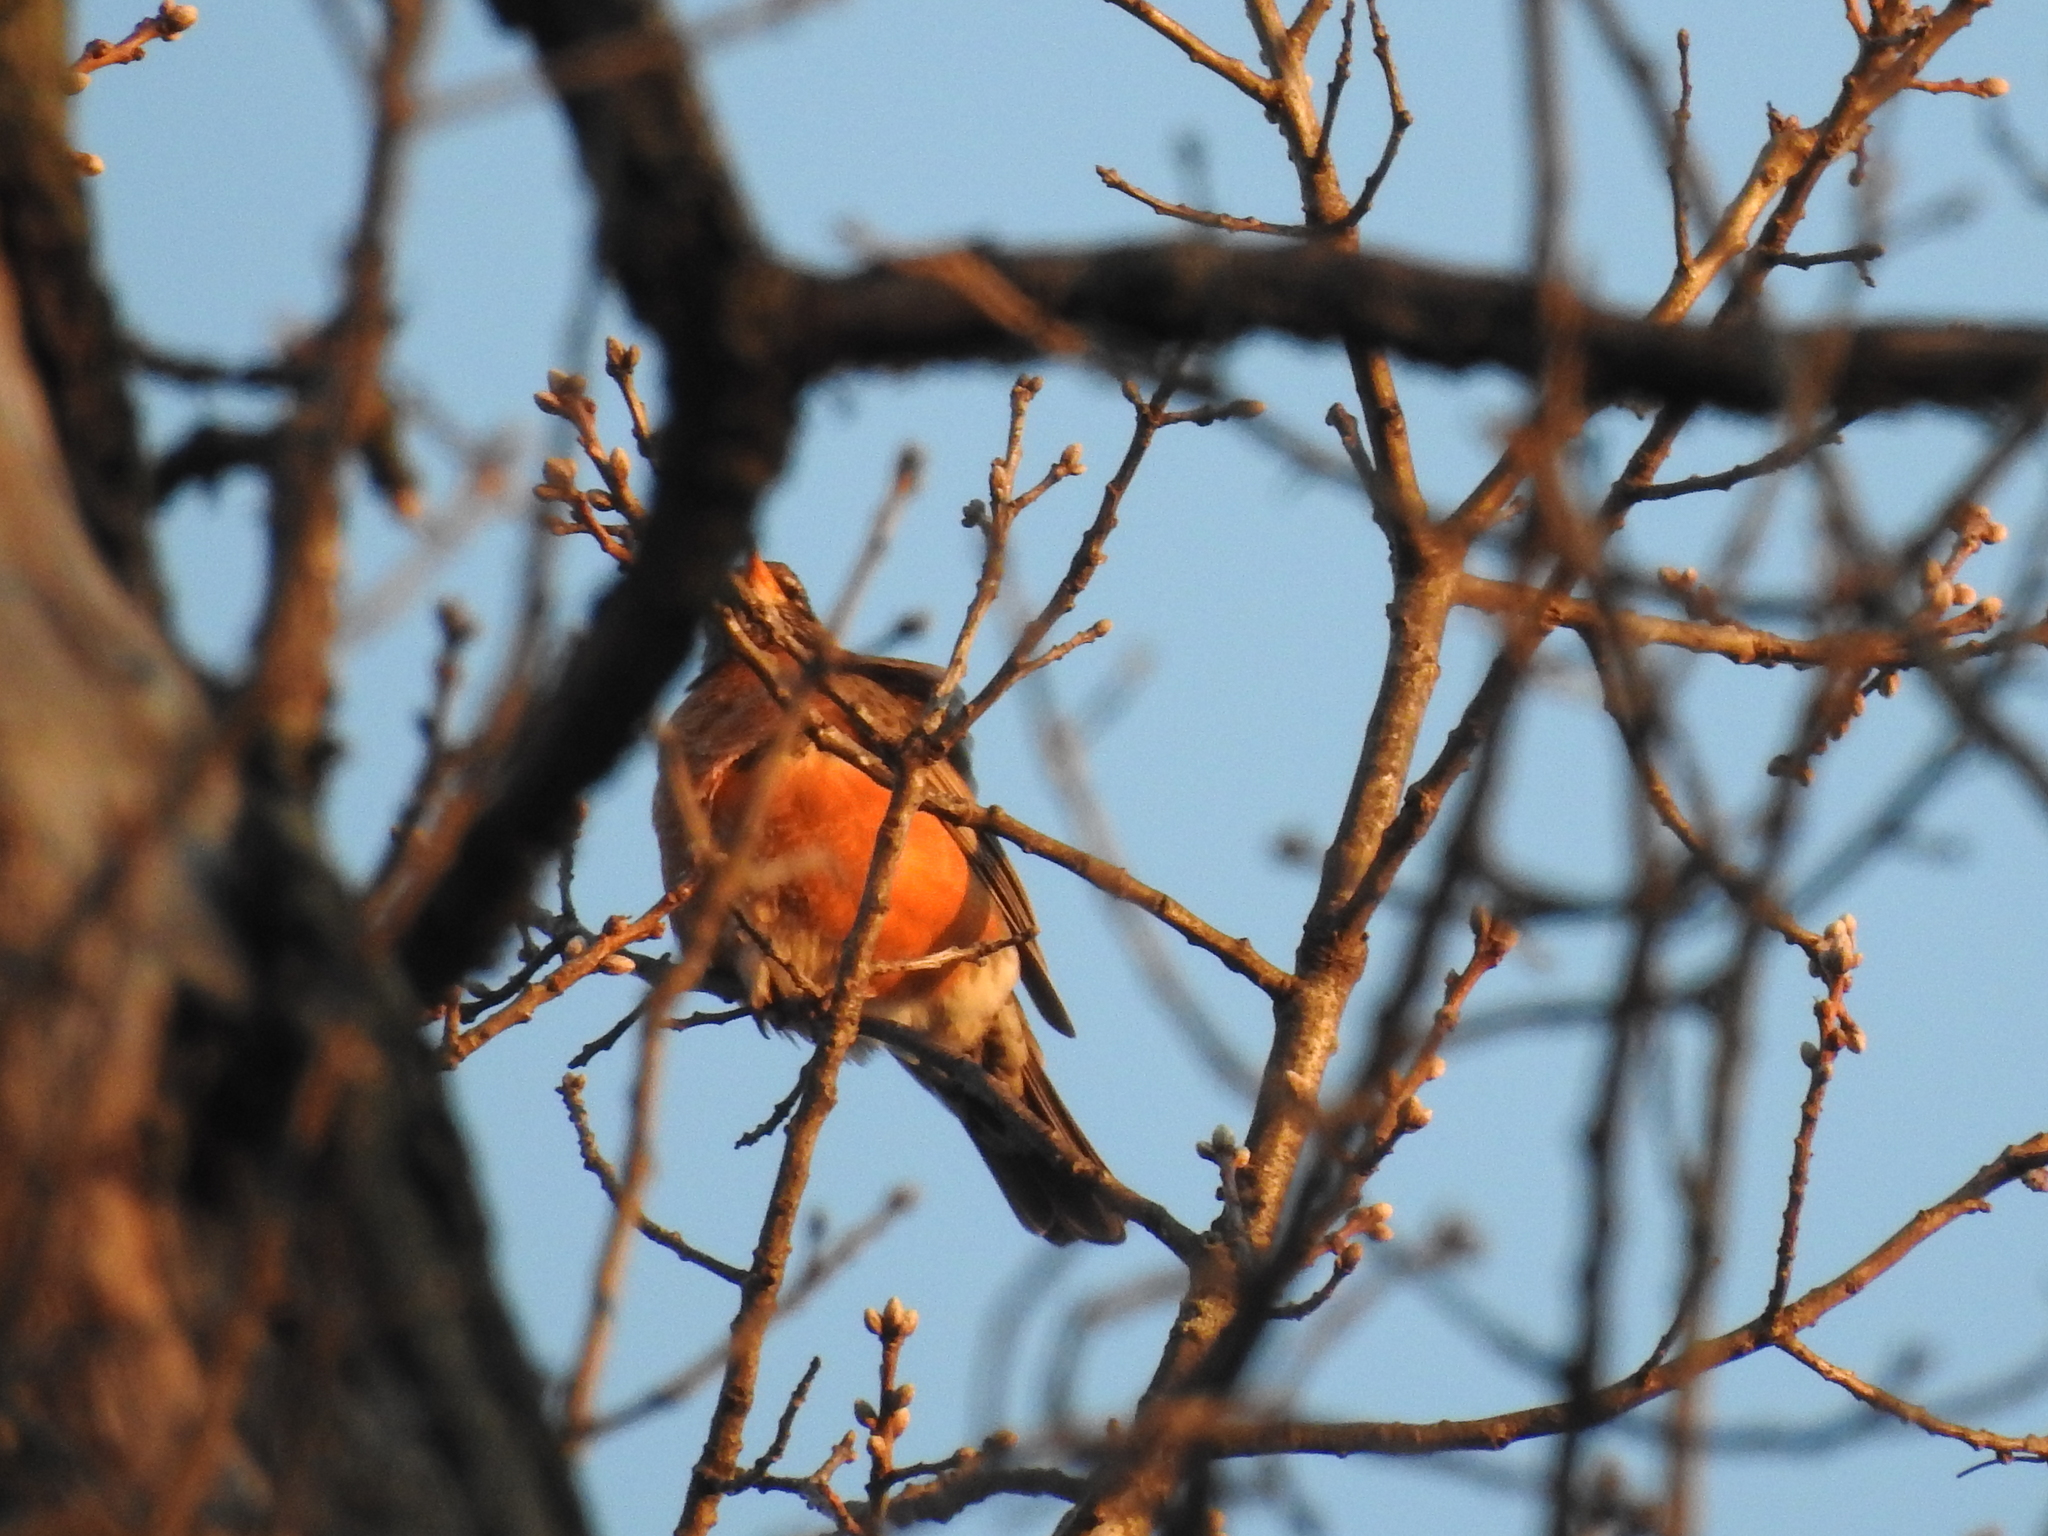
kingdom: Animalia
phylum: Chordata
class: Aves
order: Passeriformes
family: Turdidae
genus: Turdus
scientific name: Turdus migratorius
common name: American robin
